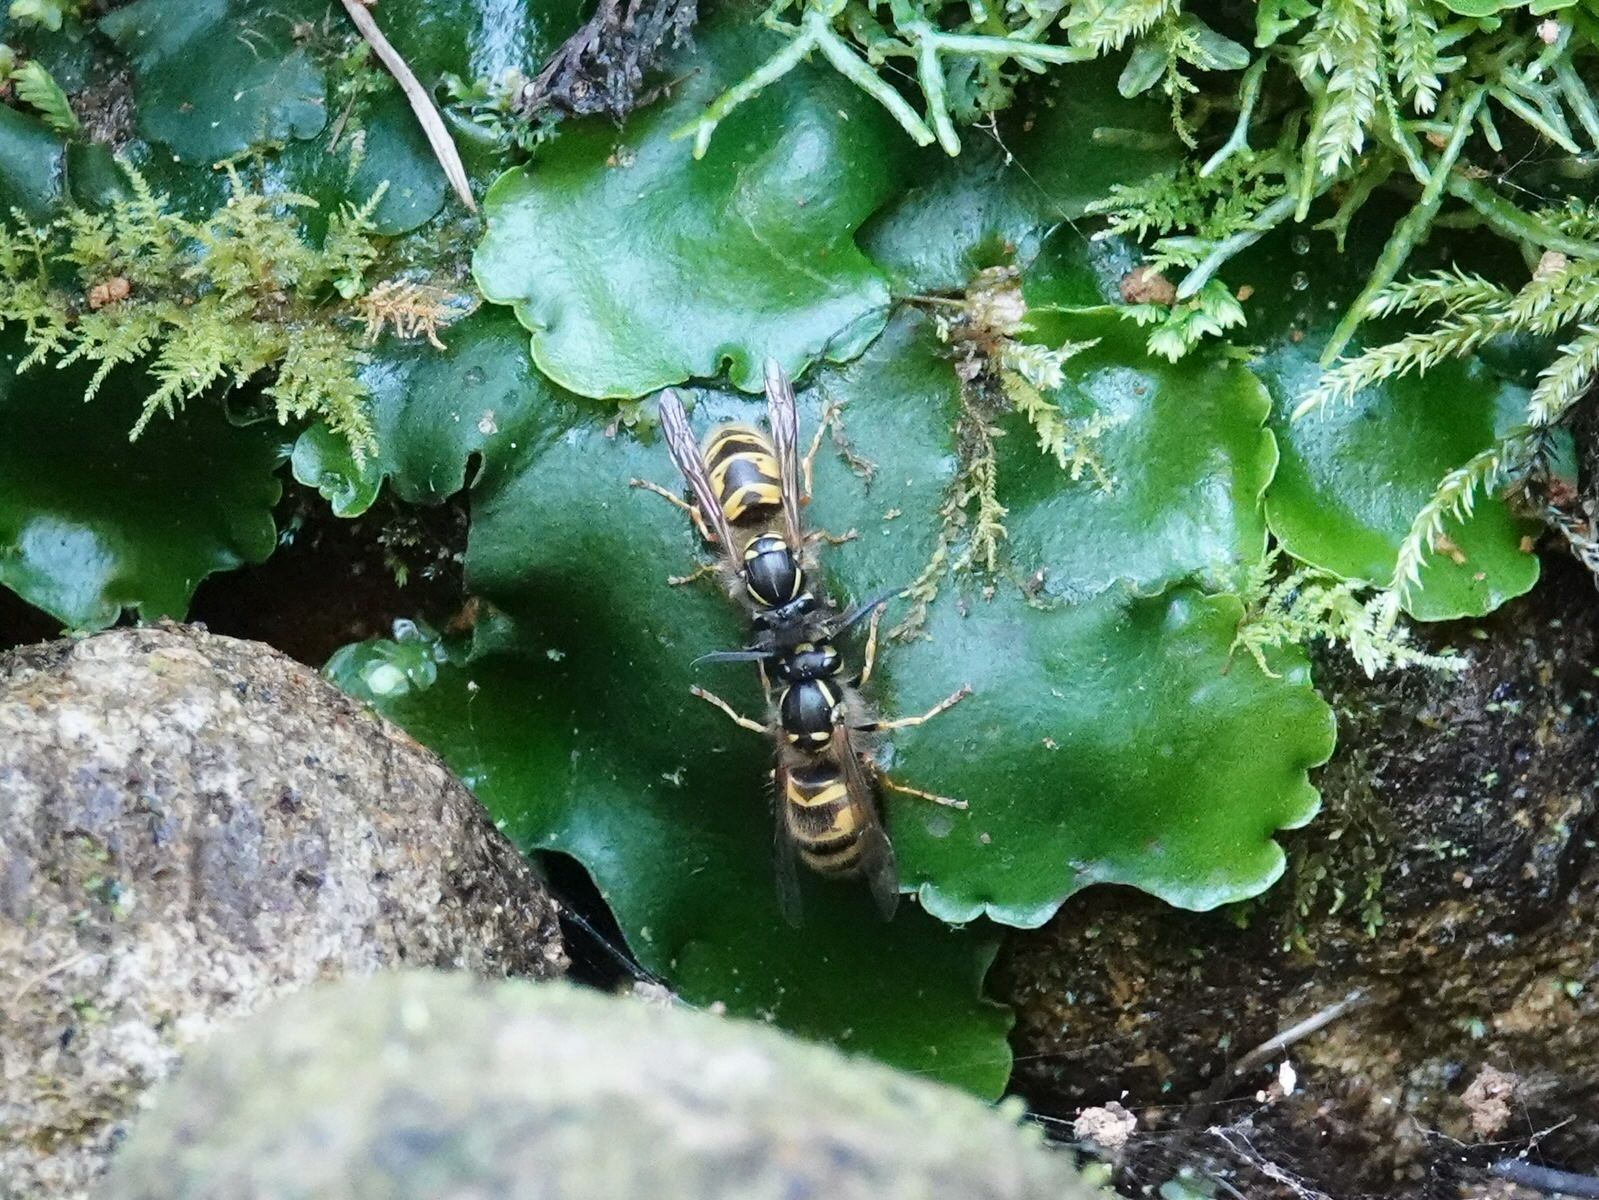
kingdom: Animalia
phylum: Arthropoda
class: Insecta
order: Hymenoptera
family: Vespidae
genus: Vespula
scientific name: Vespula vulgaris
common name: Common wasp
